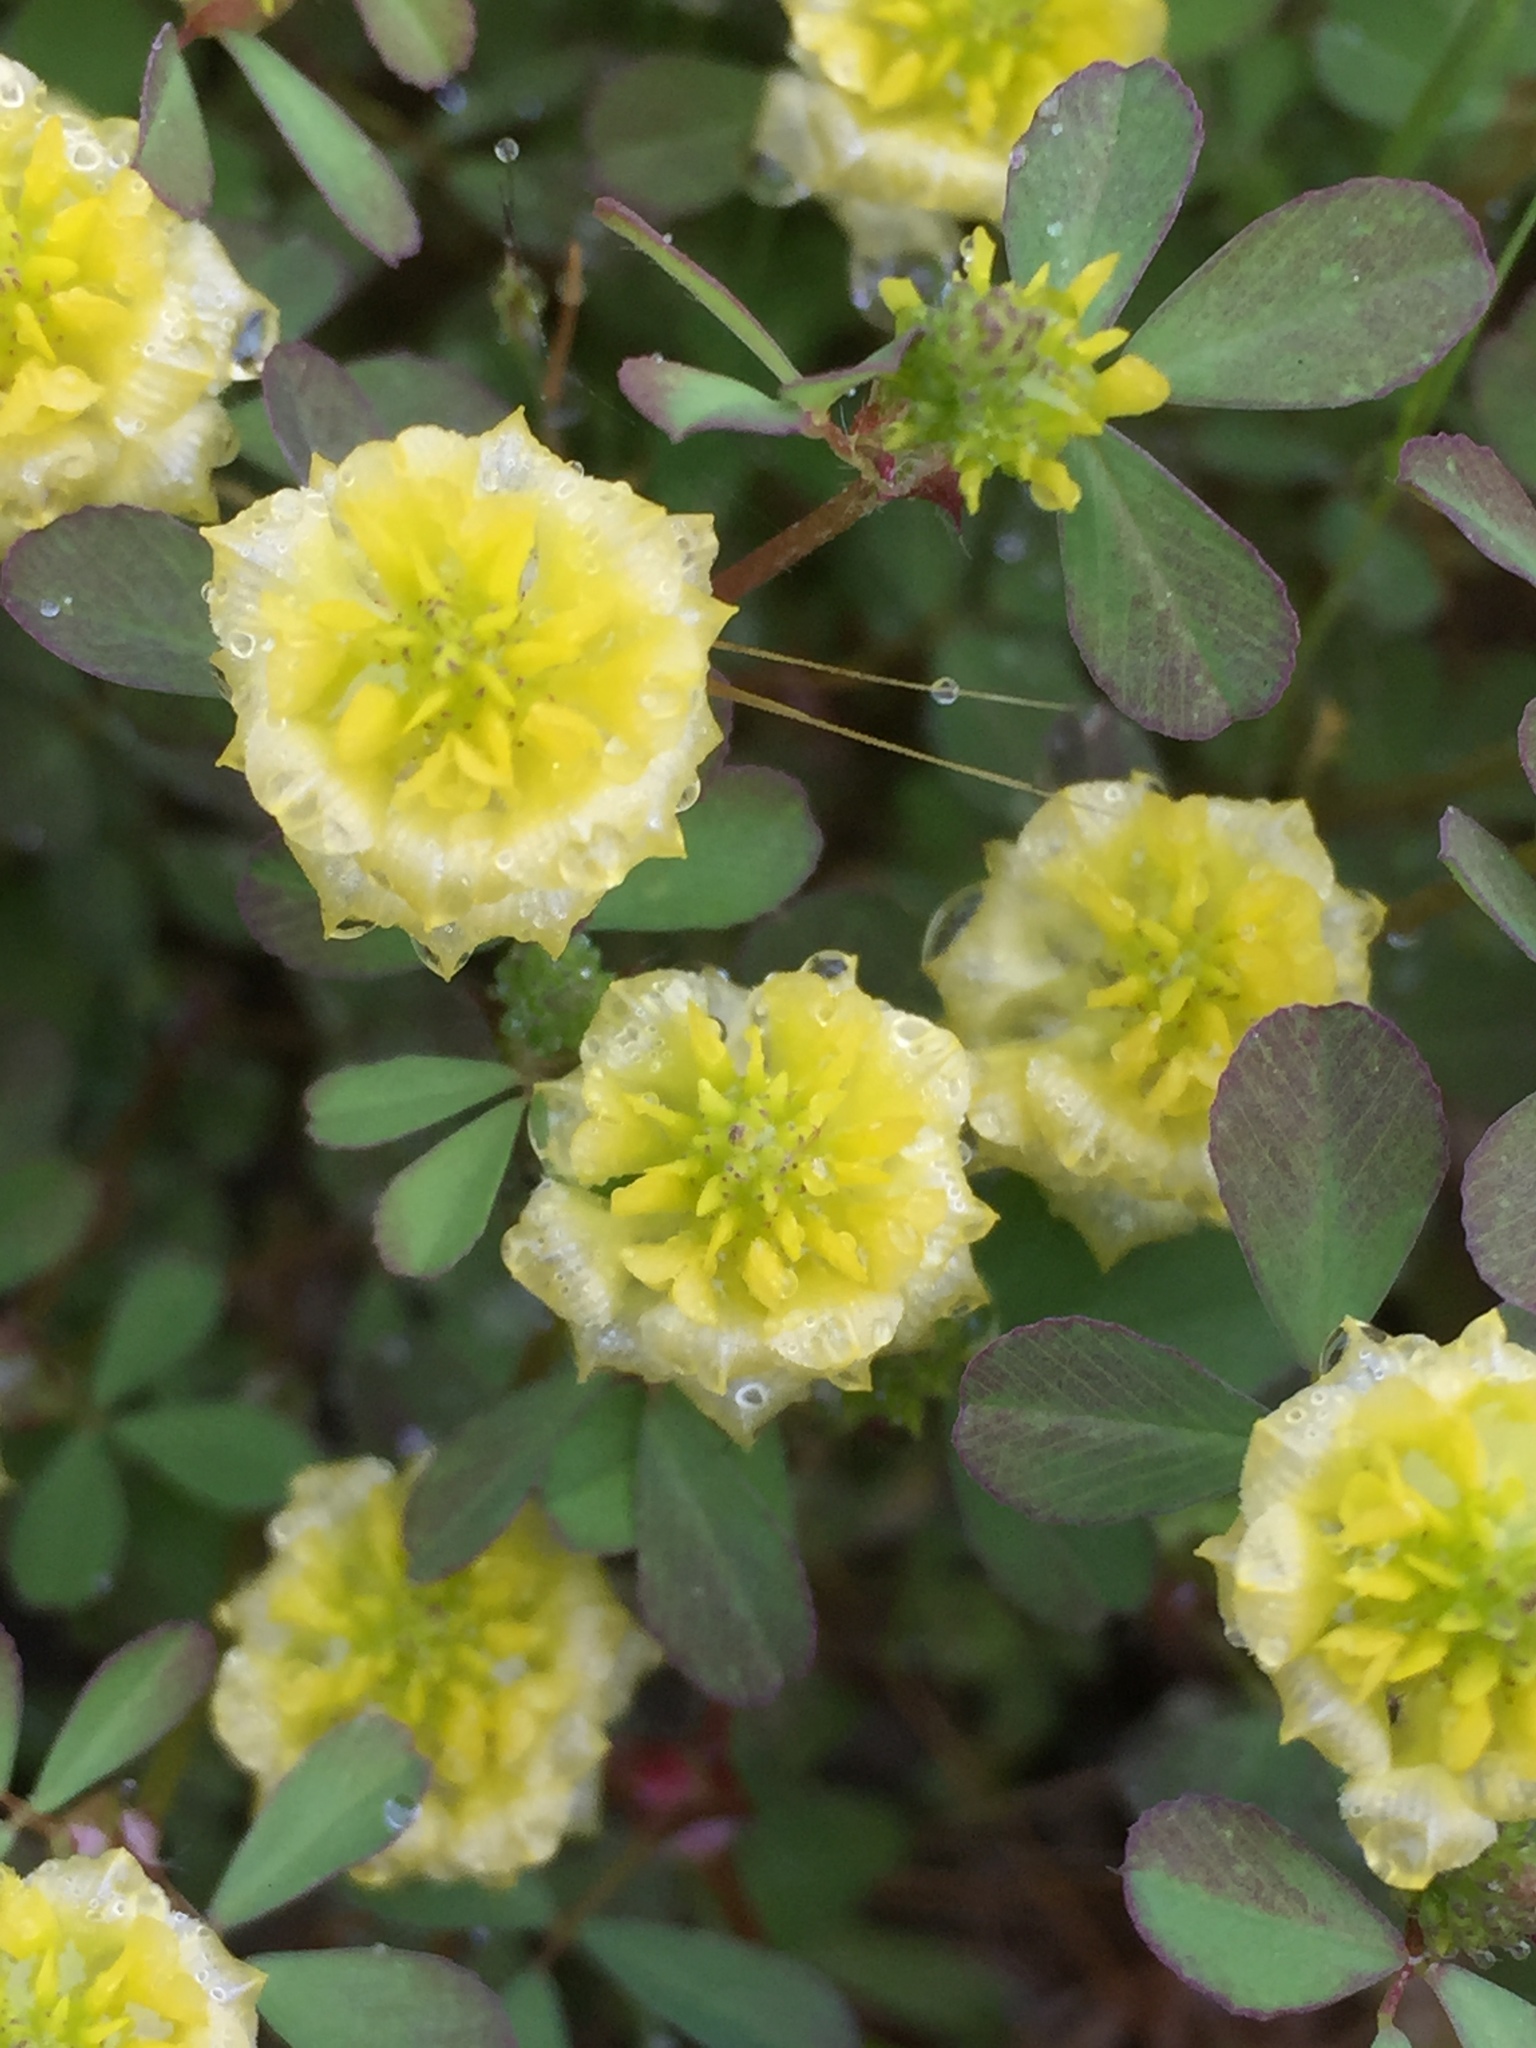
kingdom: Plantae
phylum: Tracheophyta
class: Magnoliopsida
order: Fabales
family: Fabaceae
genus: Trifolium
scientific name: Trifolium campestre
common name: Field clover
